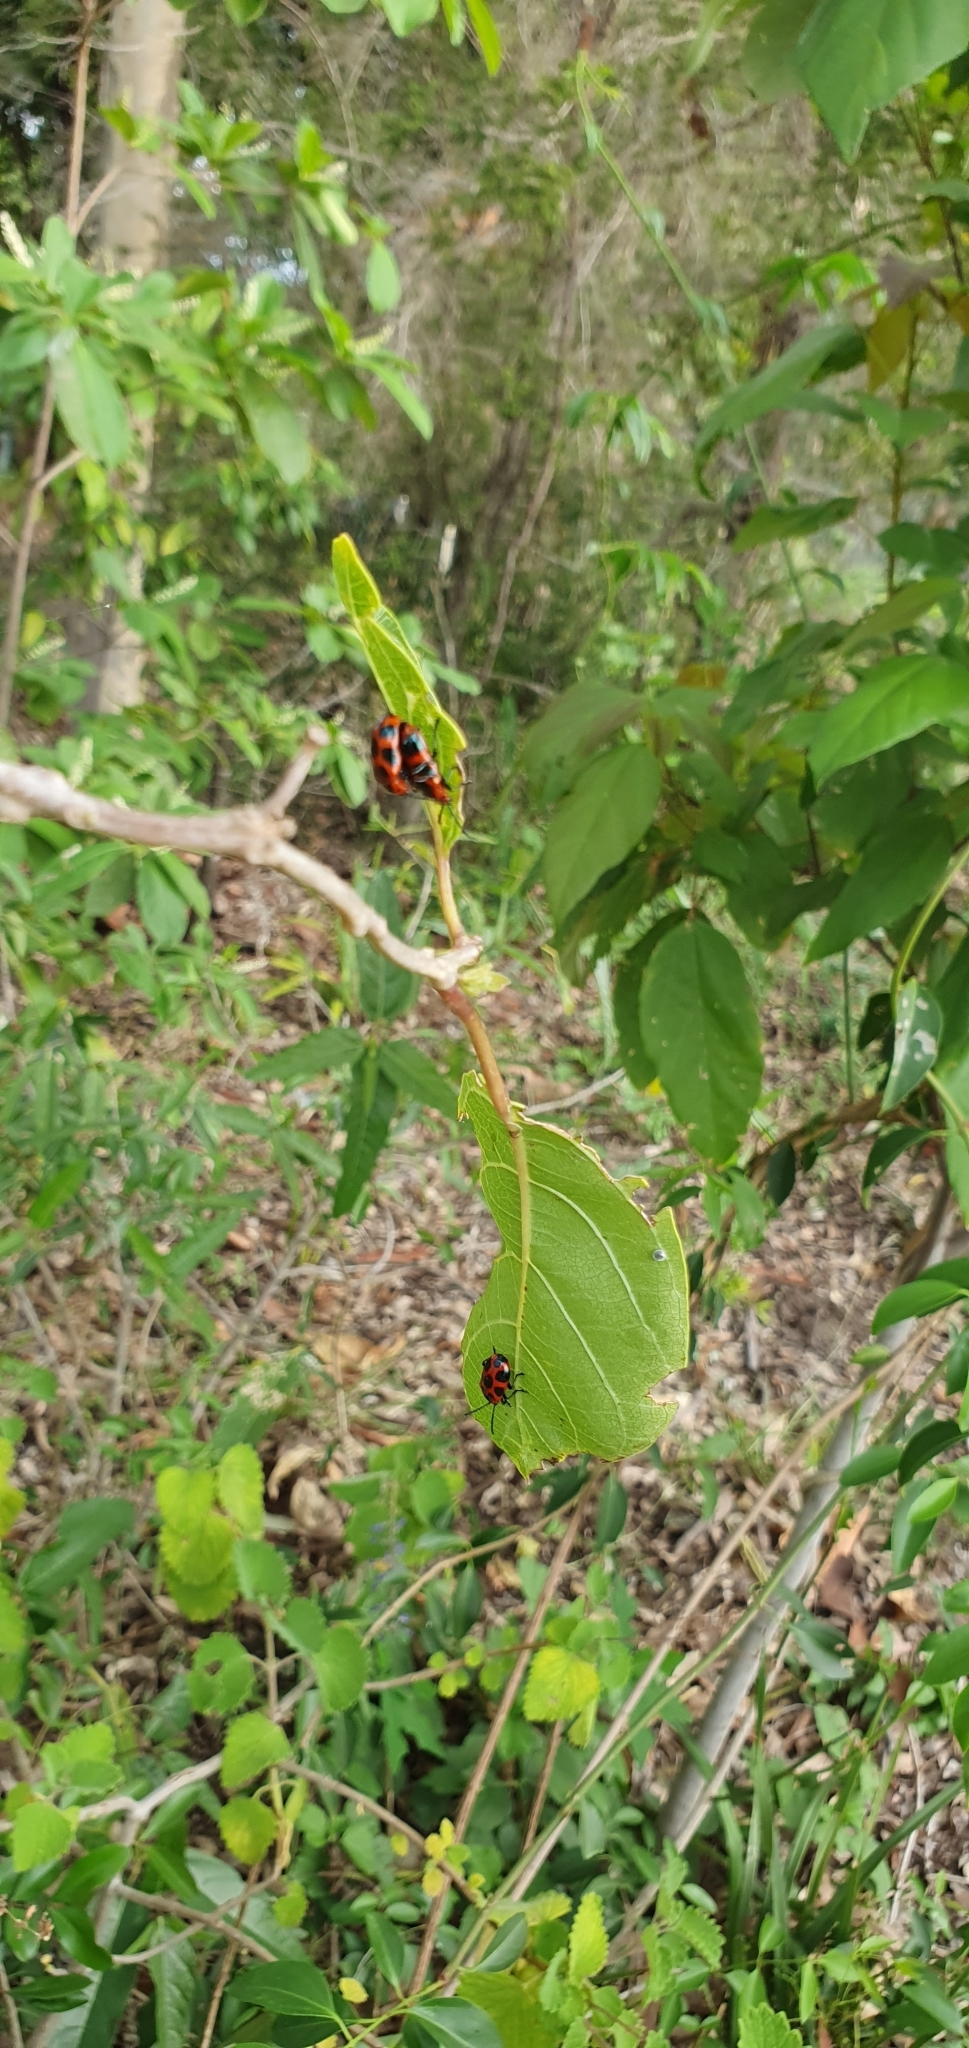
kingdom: Animalia
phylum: Arthropoda
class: Insecta
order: Coleoptera
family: Chrysomelidae
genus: Phyllocharis
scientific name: Phyllocharis
